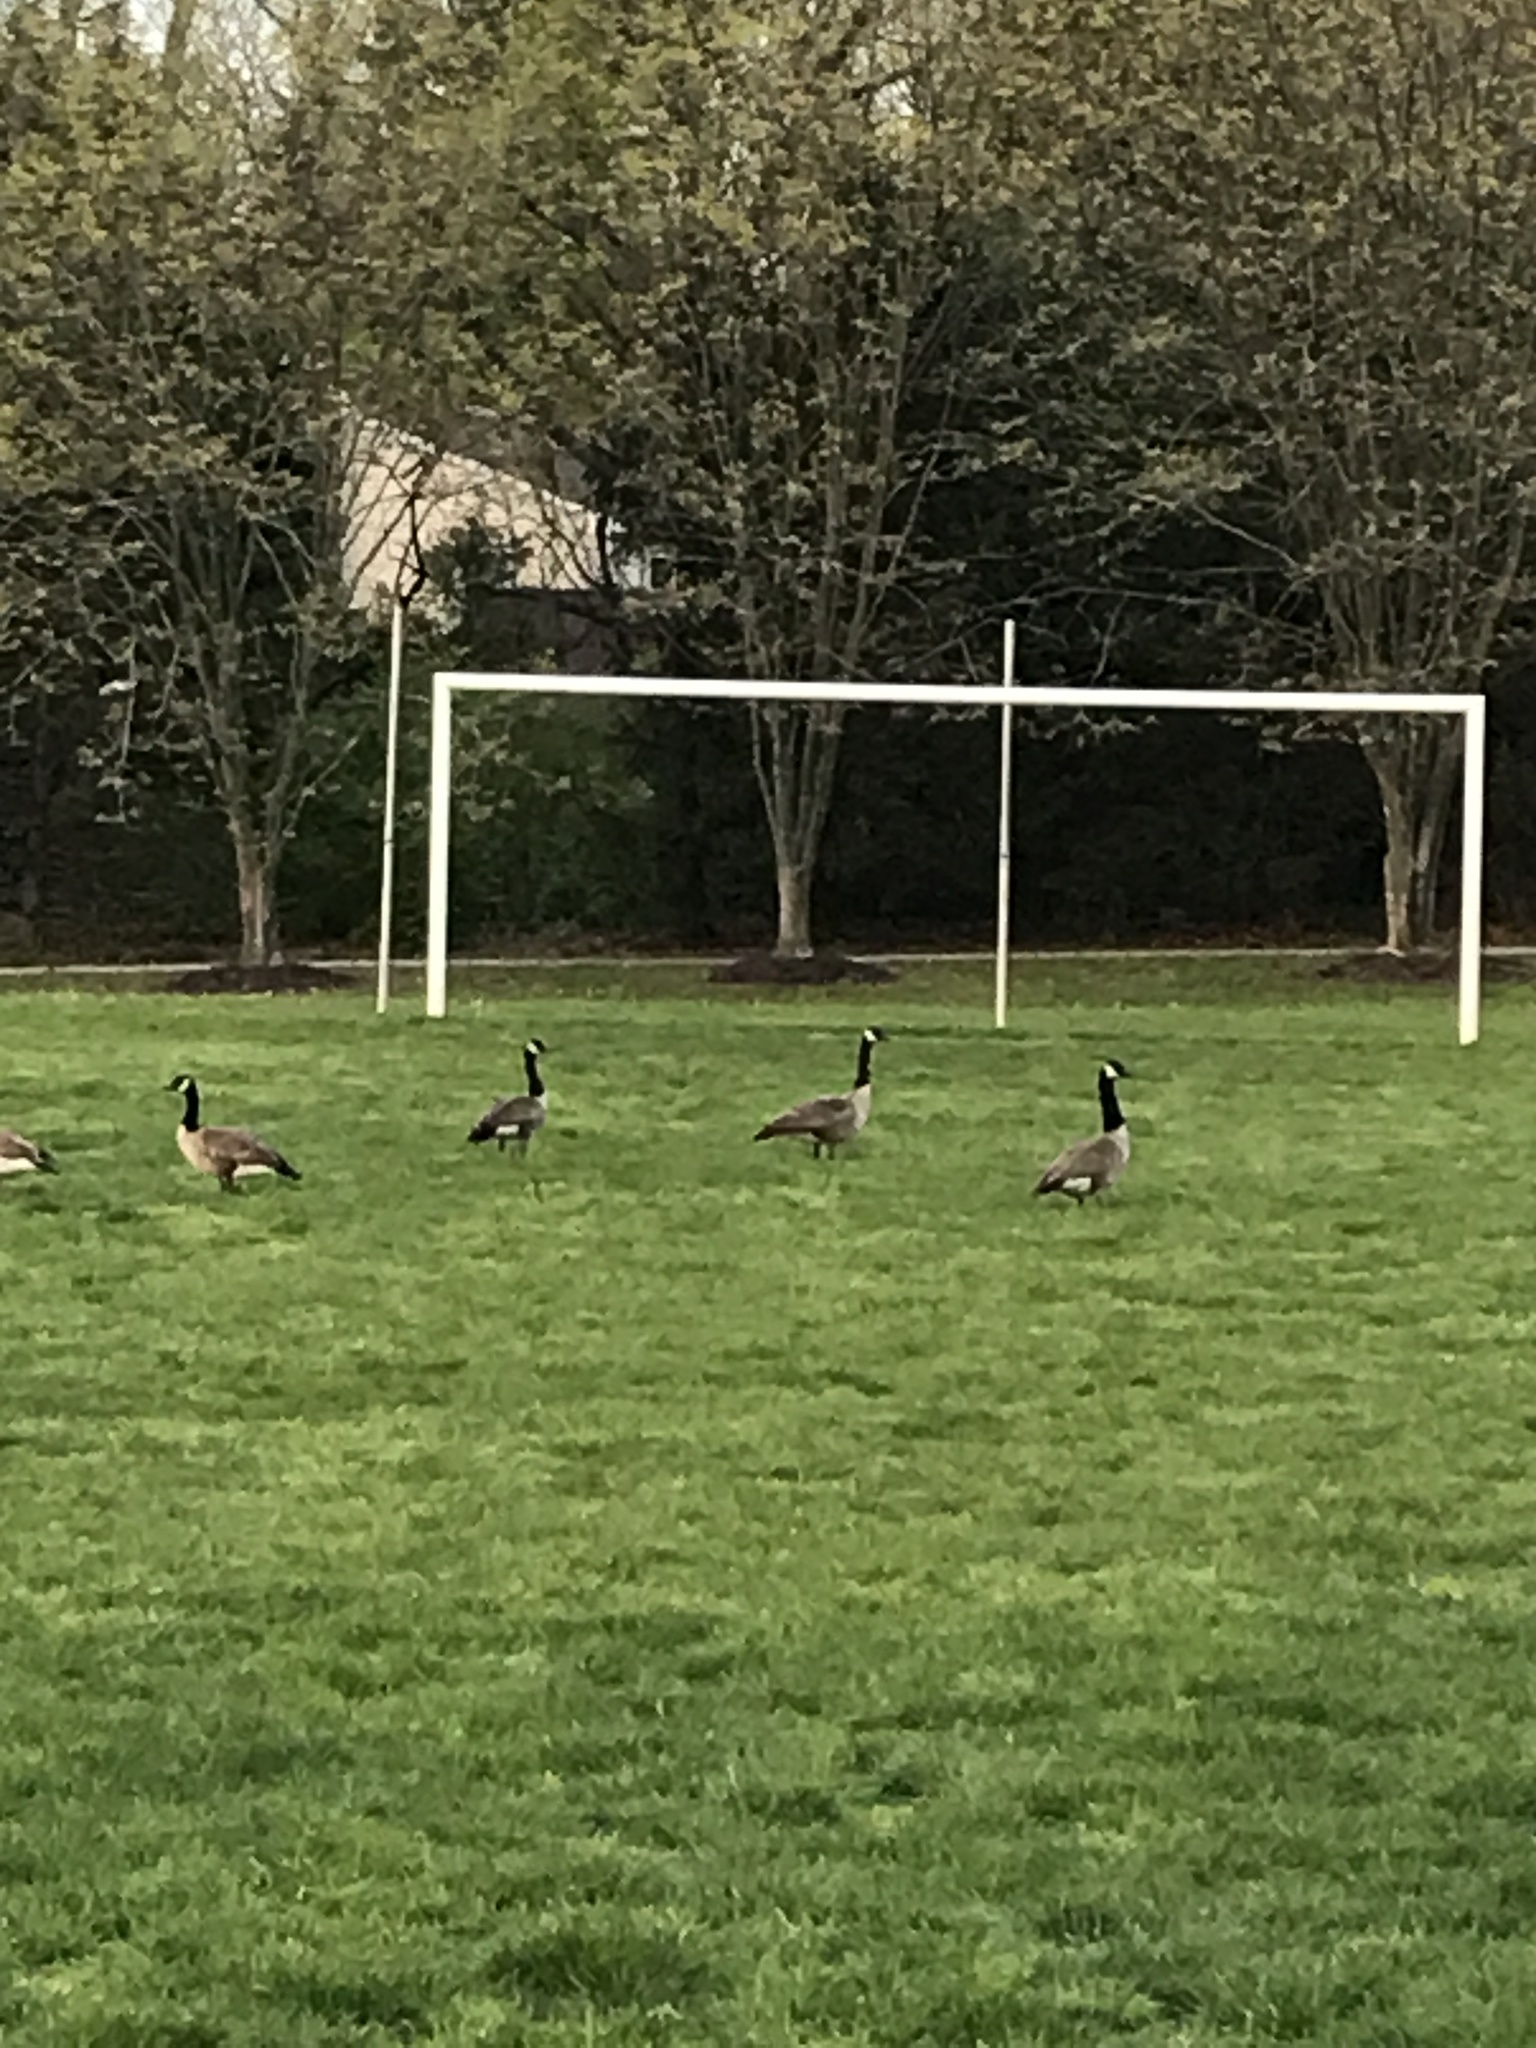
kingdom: Animalia
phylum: Chordata
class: Aves
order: Anseriformes
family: Anatidae
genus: Branta
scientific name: Branta canadensis
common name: Canada goose
